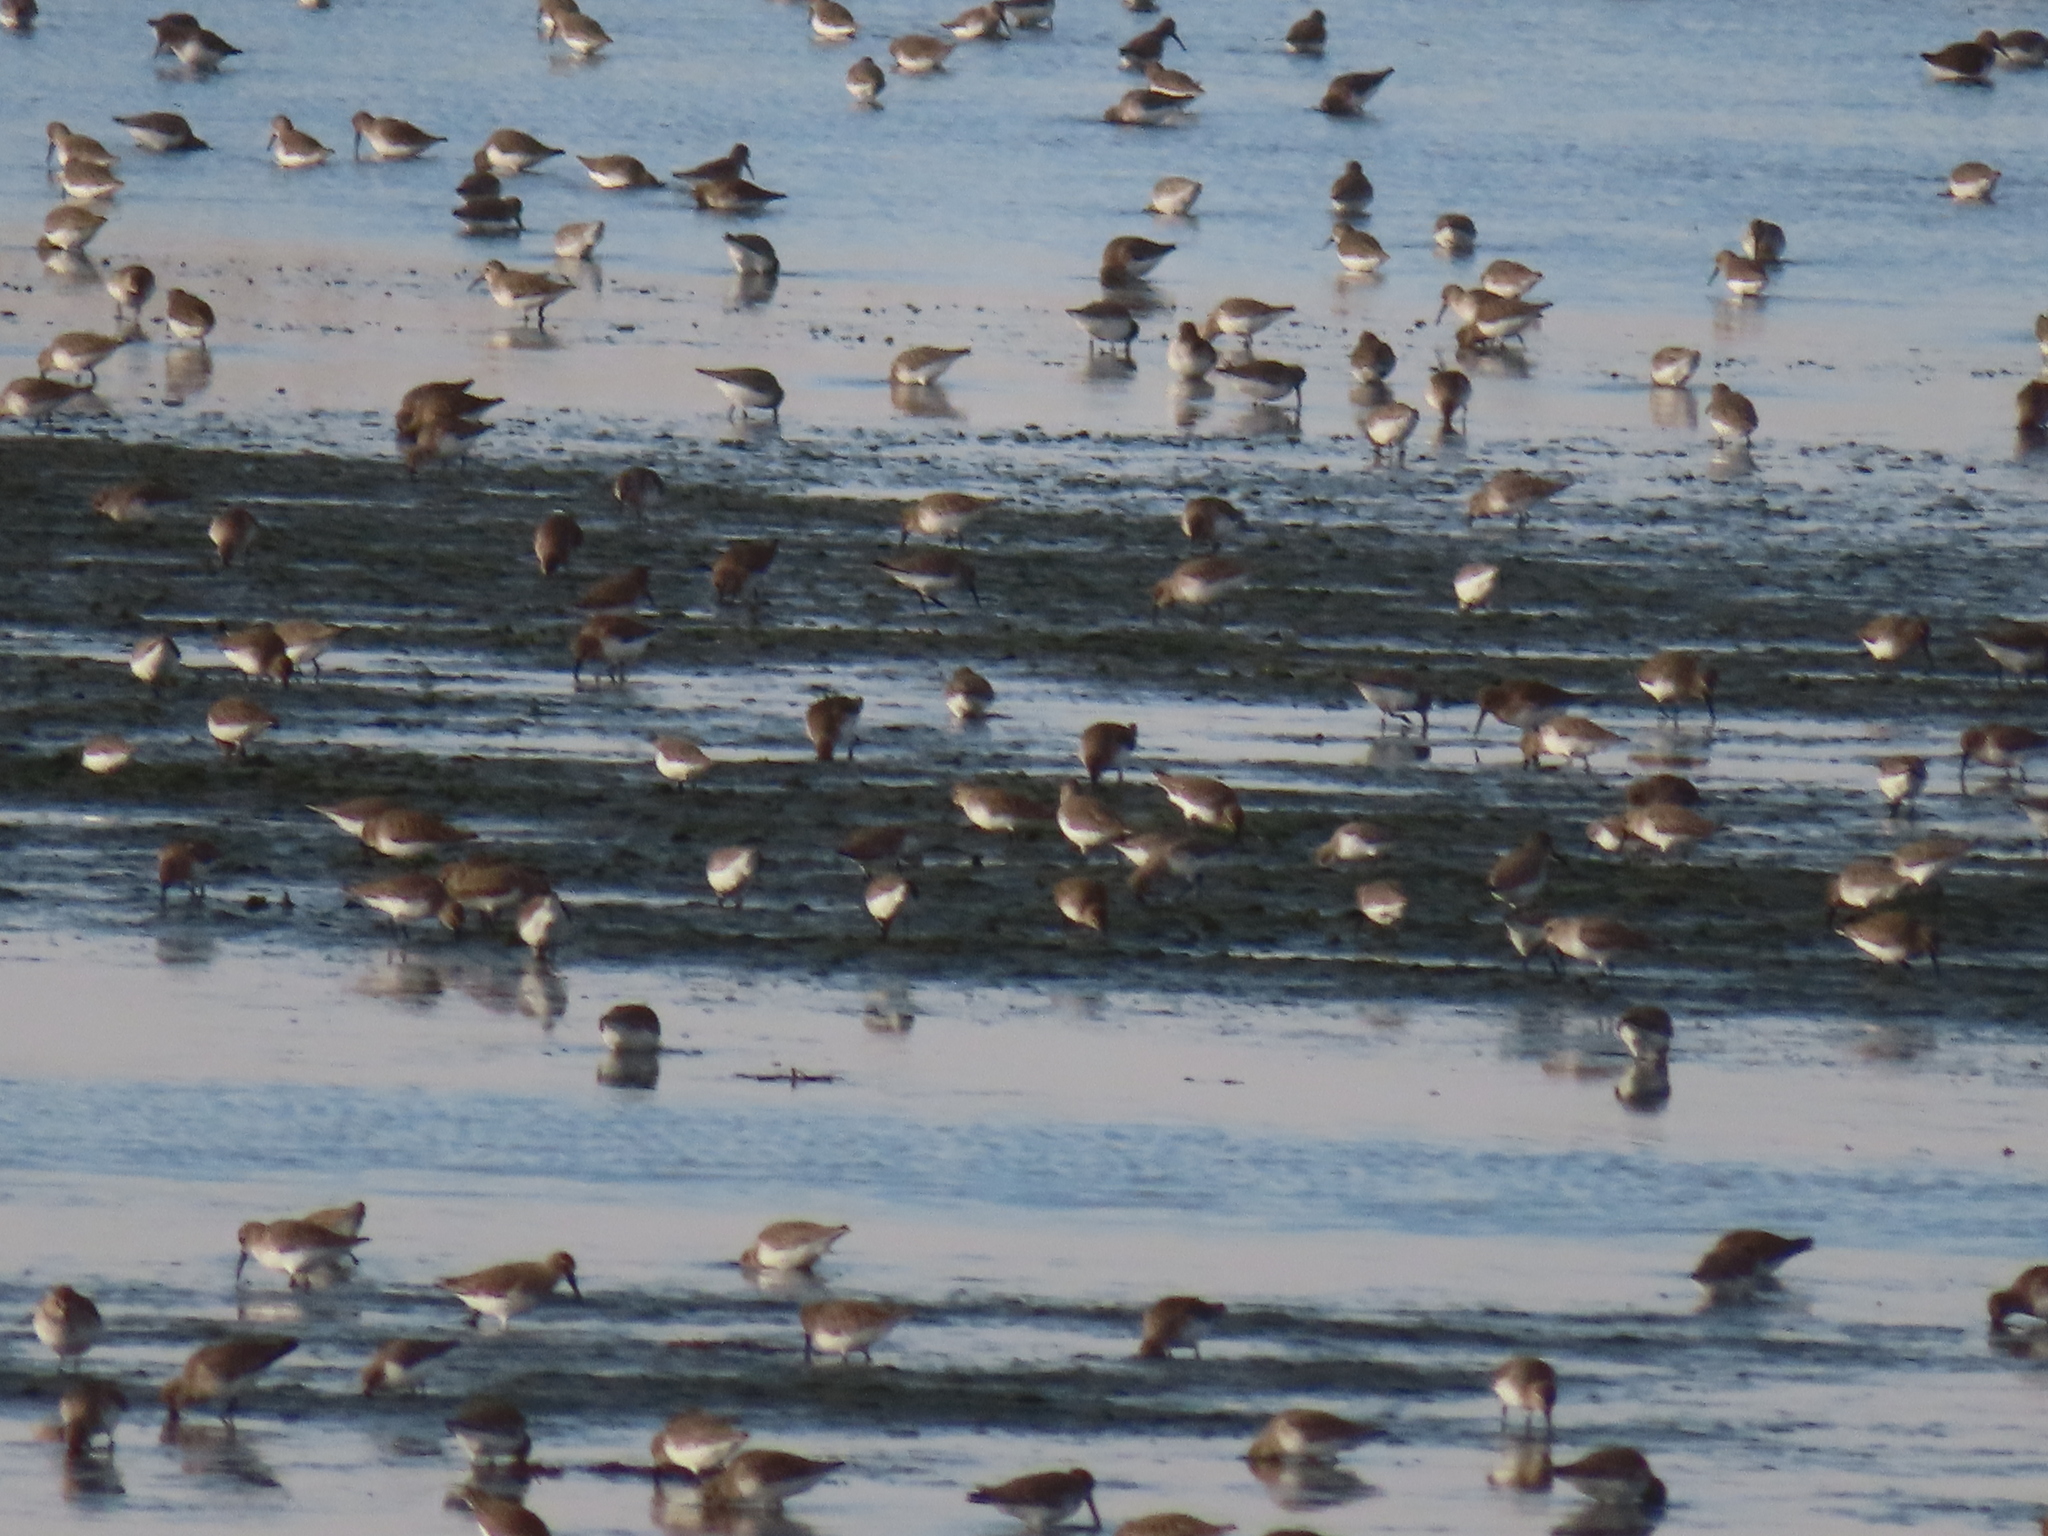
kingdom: Animalia
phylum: Chordata
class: Aves
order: Charadriiformes
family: Scolopacidae
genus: Calidris
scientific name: Calidris alpina
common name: Dunlin
